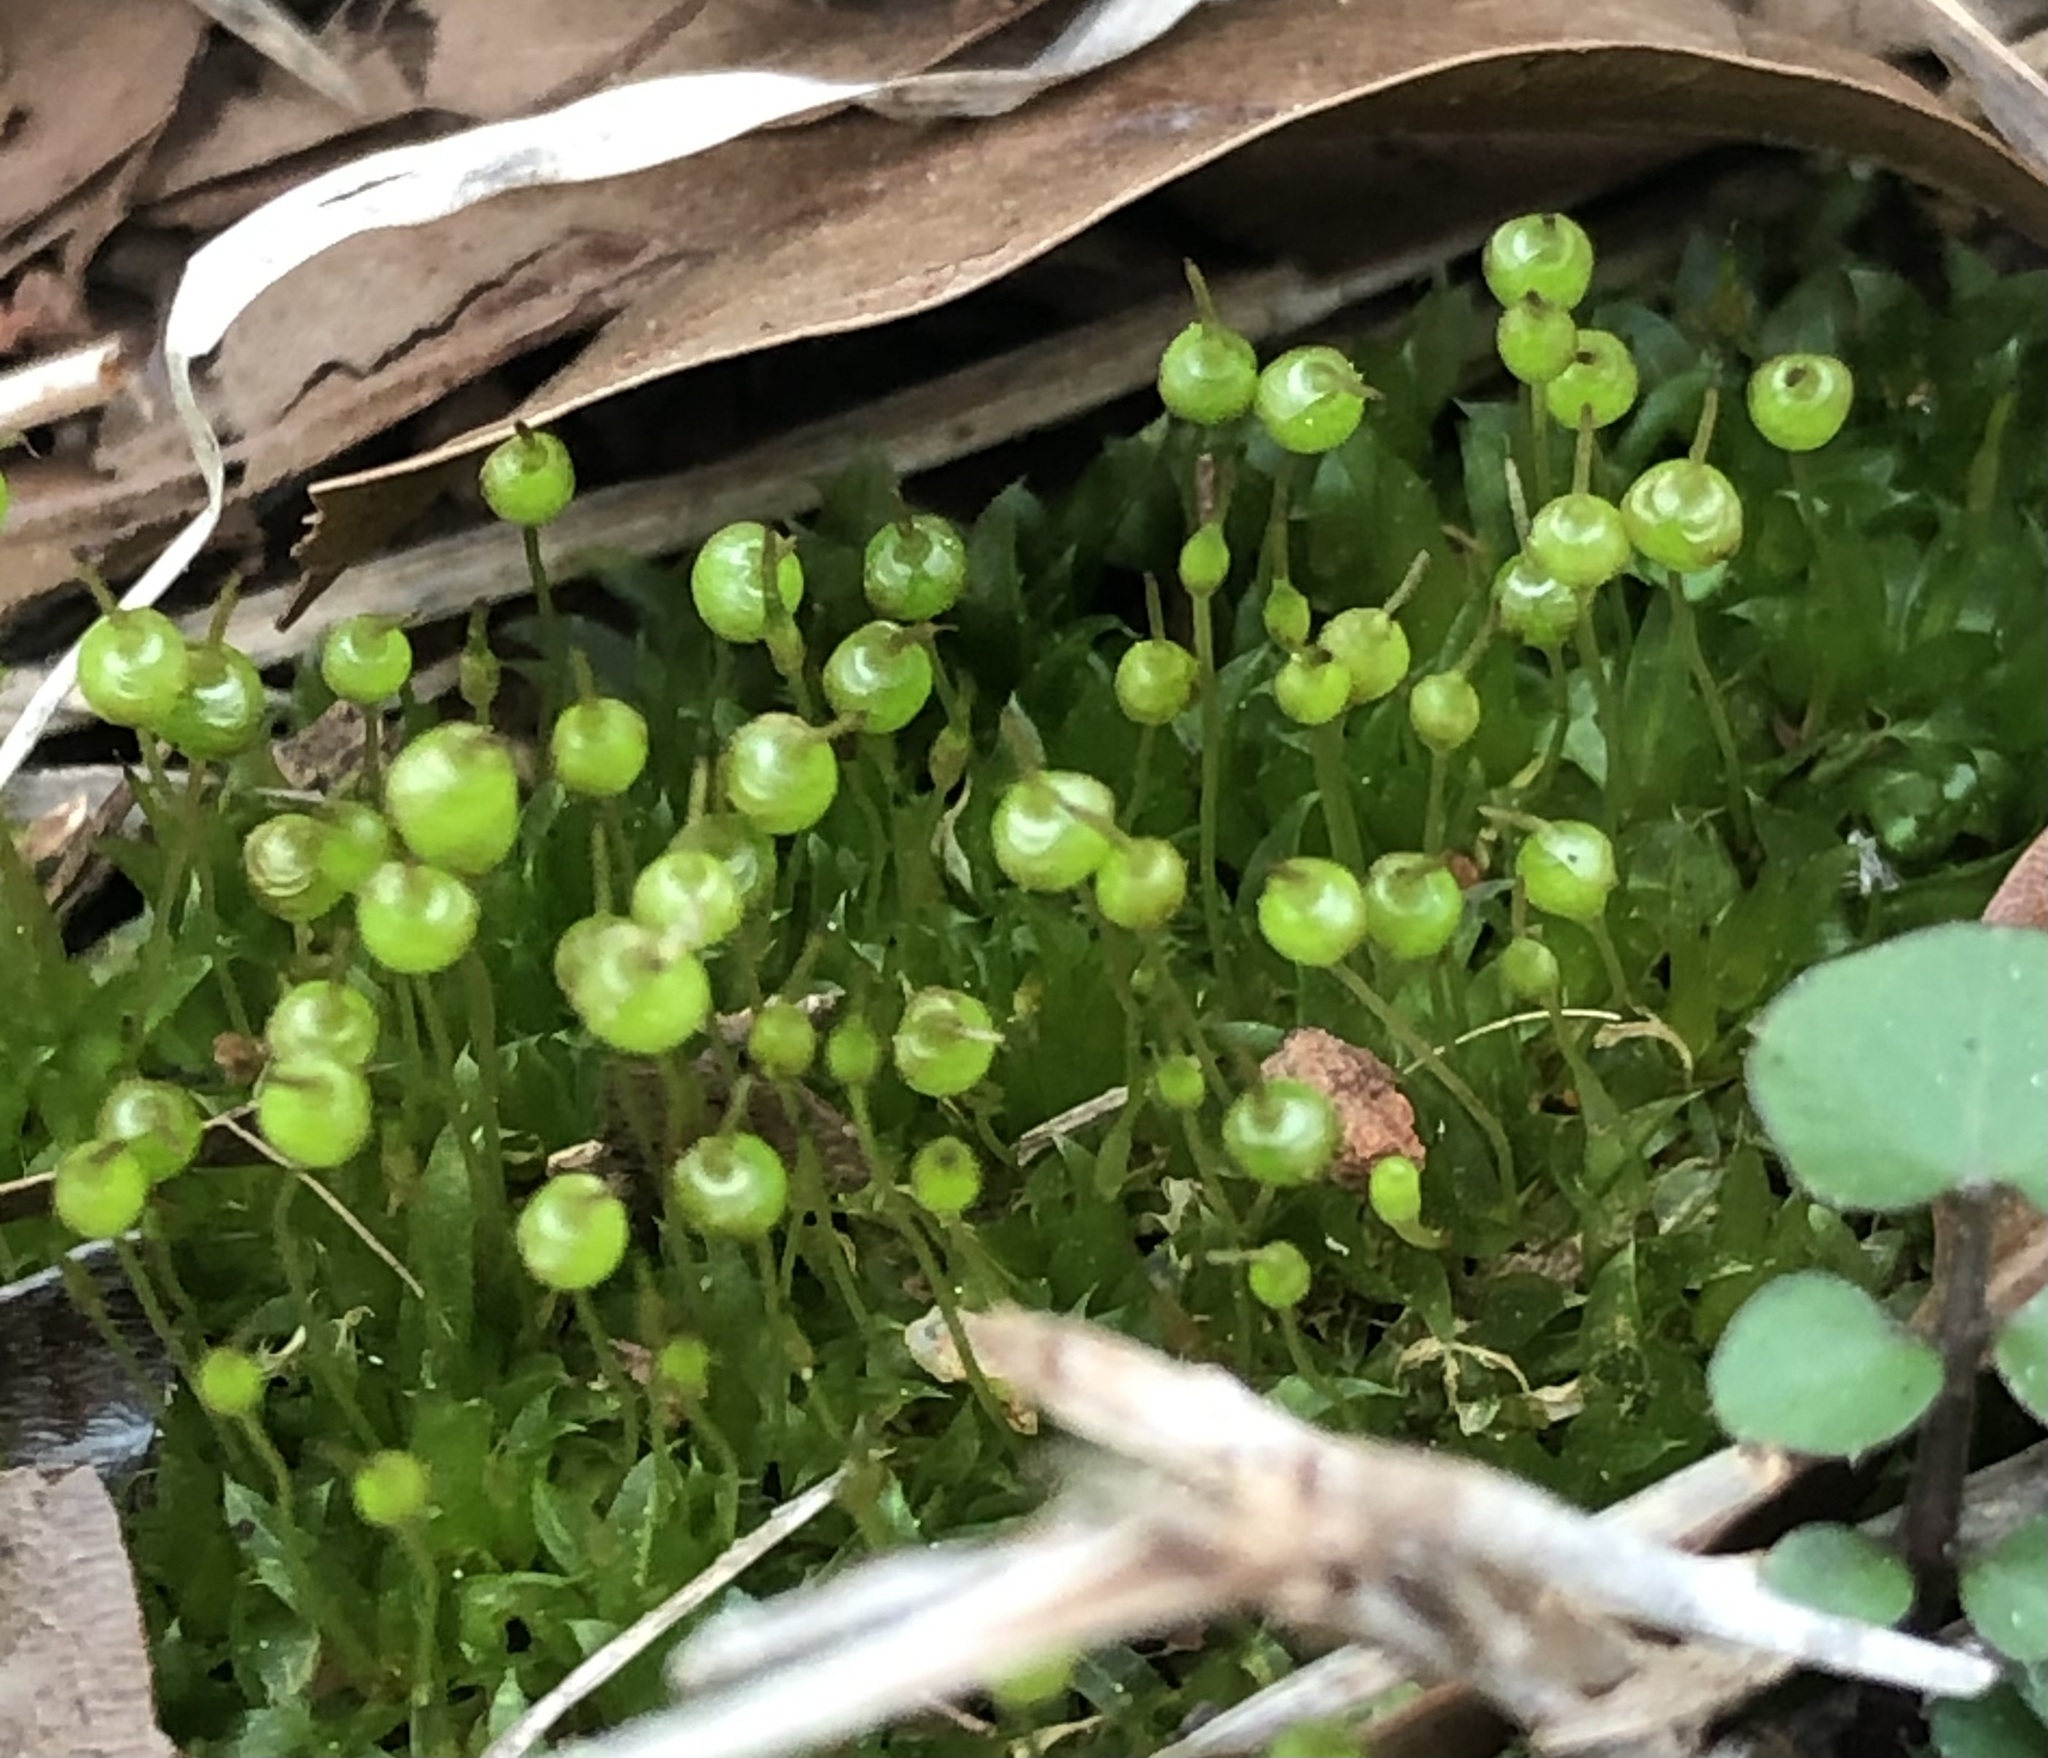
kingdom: Plantae
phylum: Bryophyta
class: Bryopsida
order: Funariales
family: Funariaceae
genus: Physcomitrium
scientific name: Physcomitrium pyriforme
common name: Common bladder-moss
